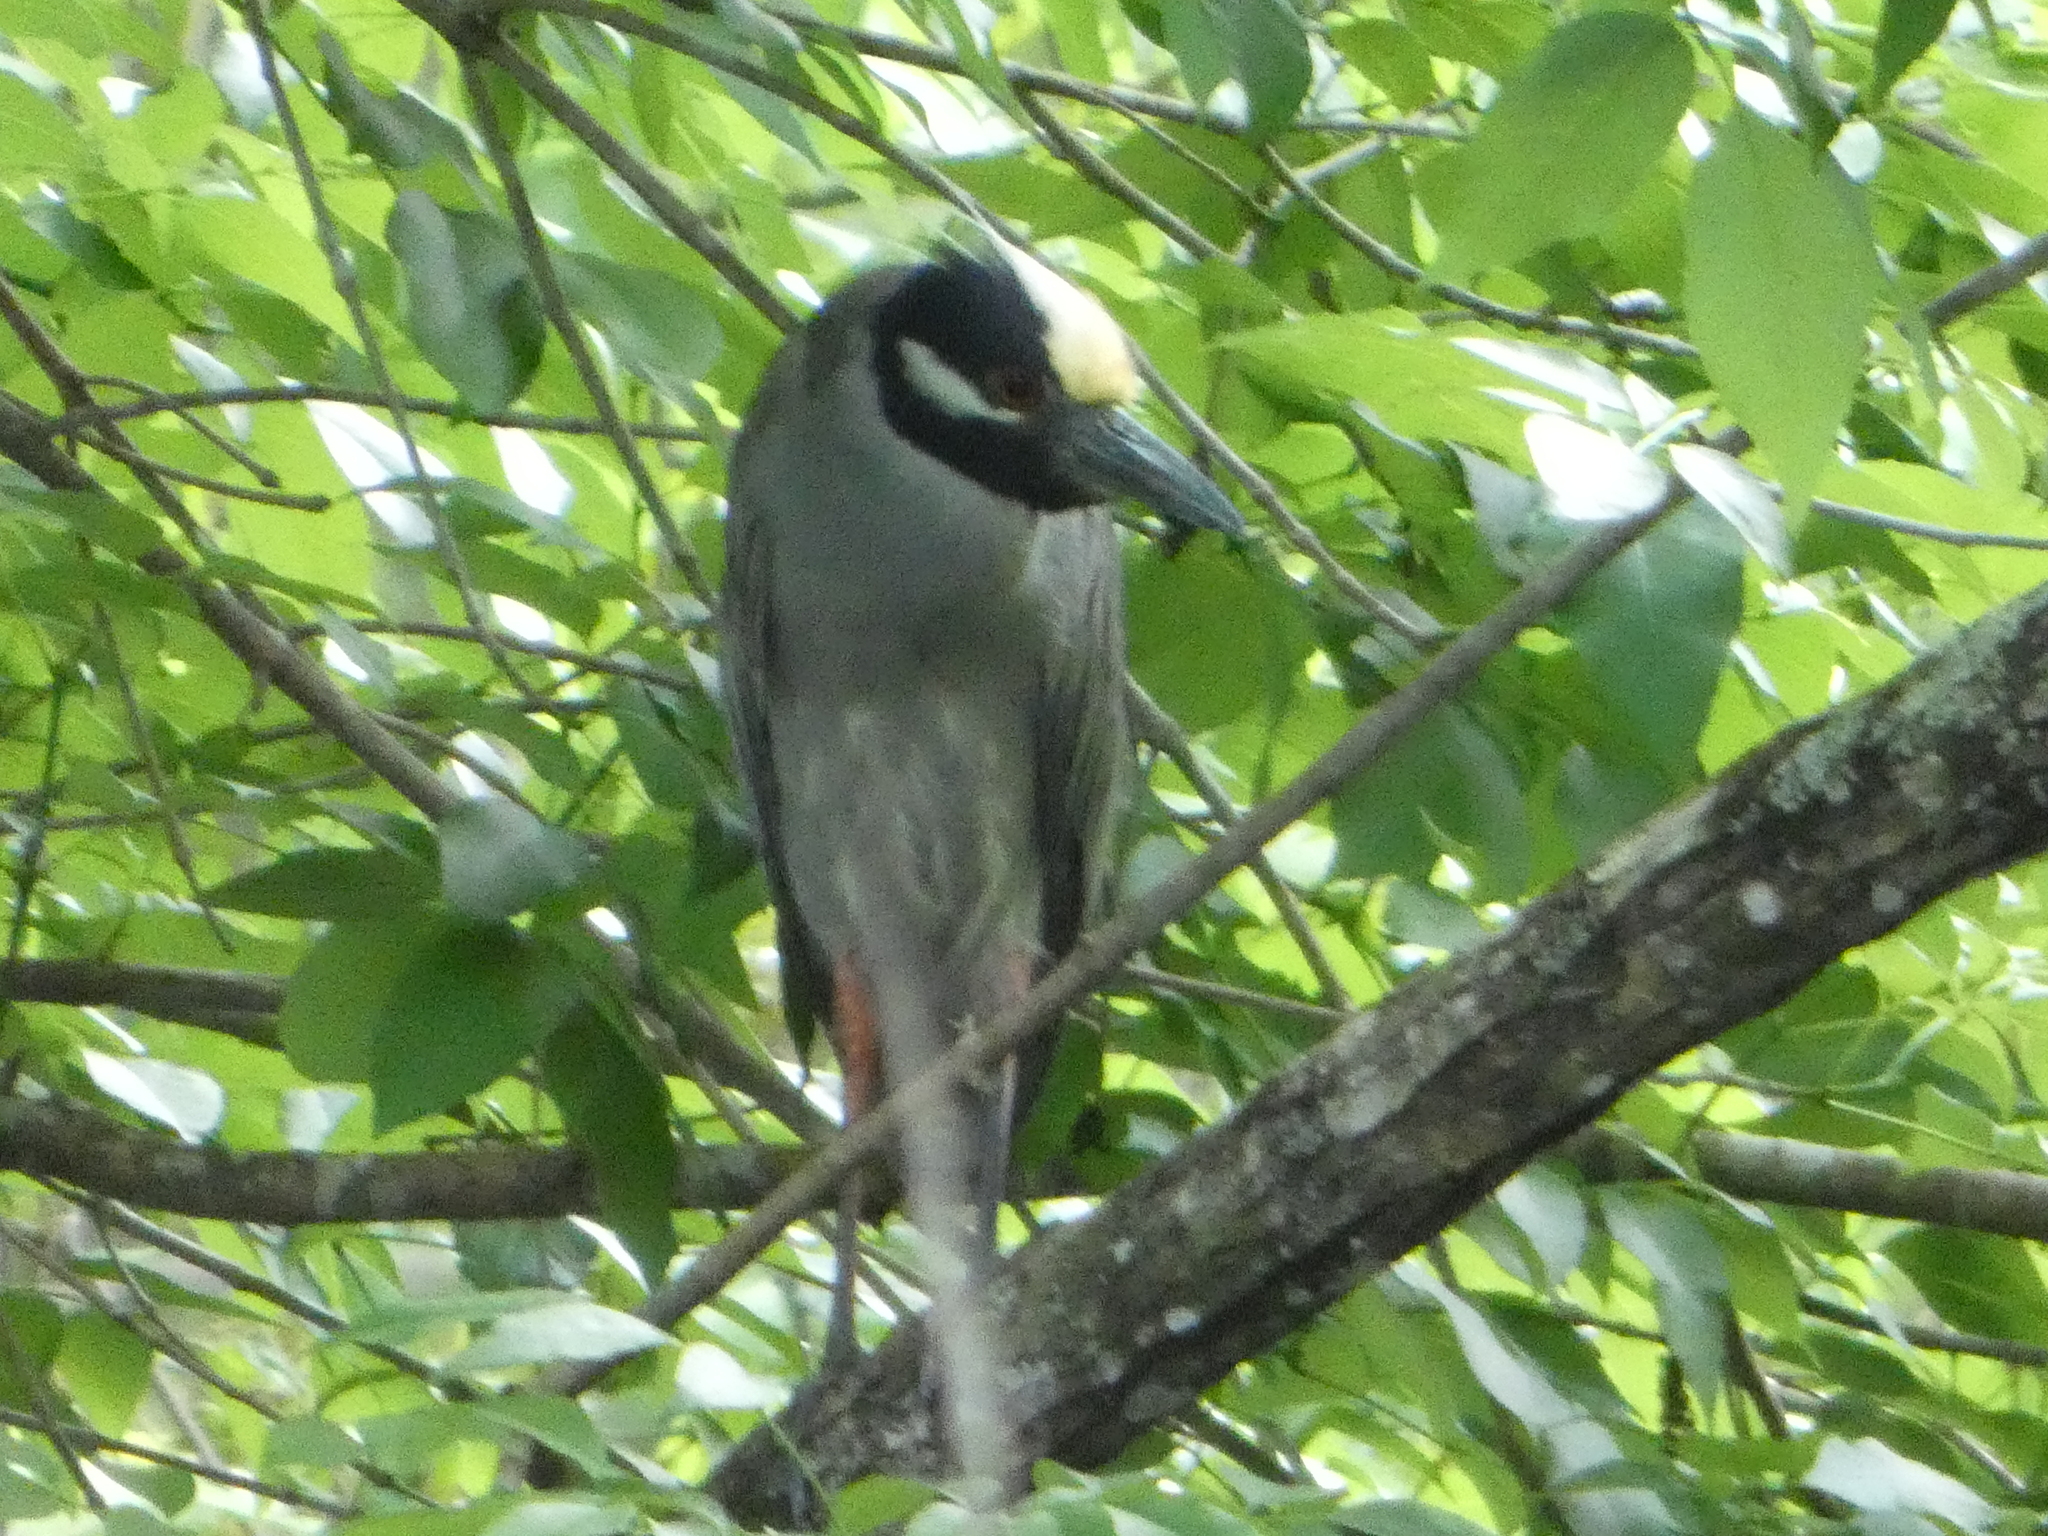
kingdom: Animalia
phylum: Chordata
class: Aves
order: Pelecaniformes
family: Ardeidae
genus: Nyctanassa
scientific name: Nyctanassa violacea
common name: Yellow-crowned night heron
